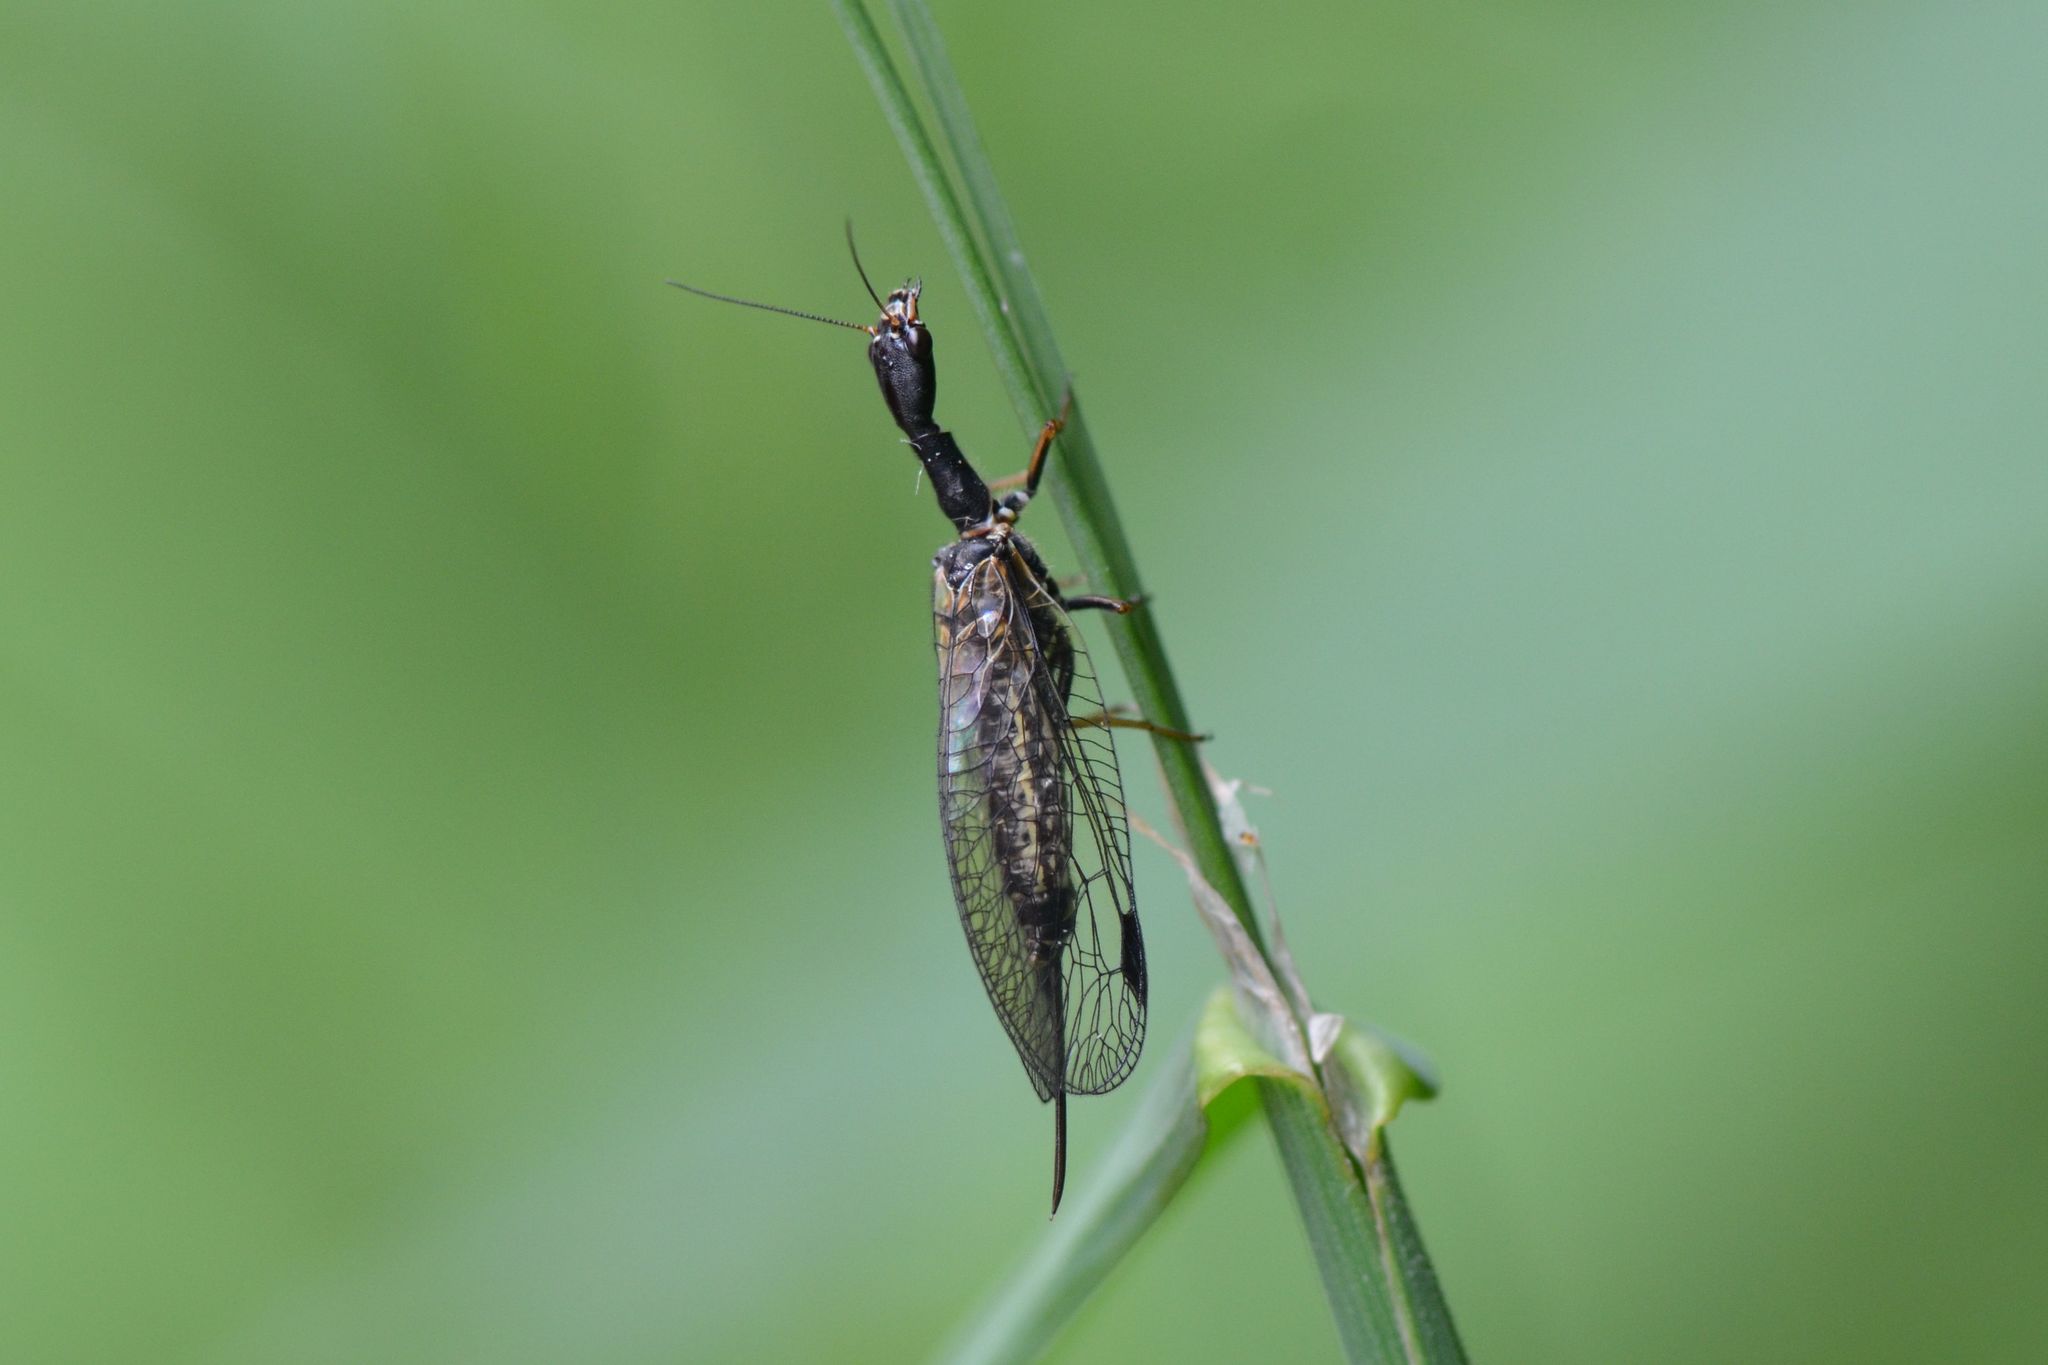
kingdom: Animalia
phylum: Arthropoda
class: Insecta
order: Raphidioptera
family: Raphidiidae
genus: Phaeostigma
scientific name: Phaeostigma notatum
